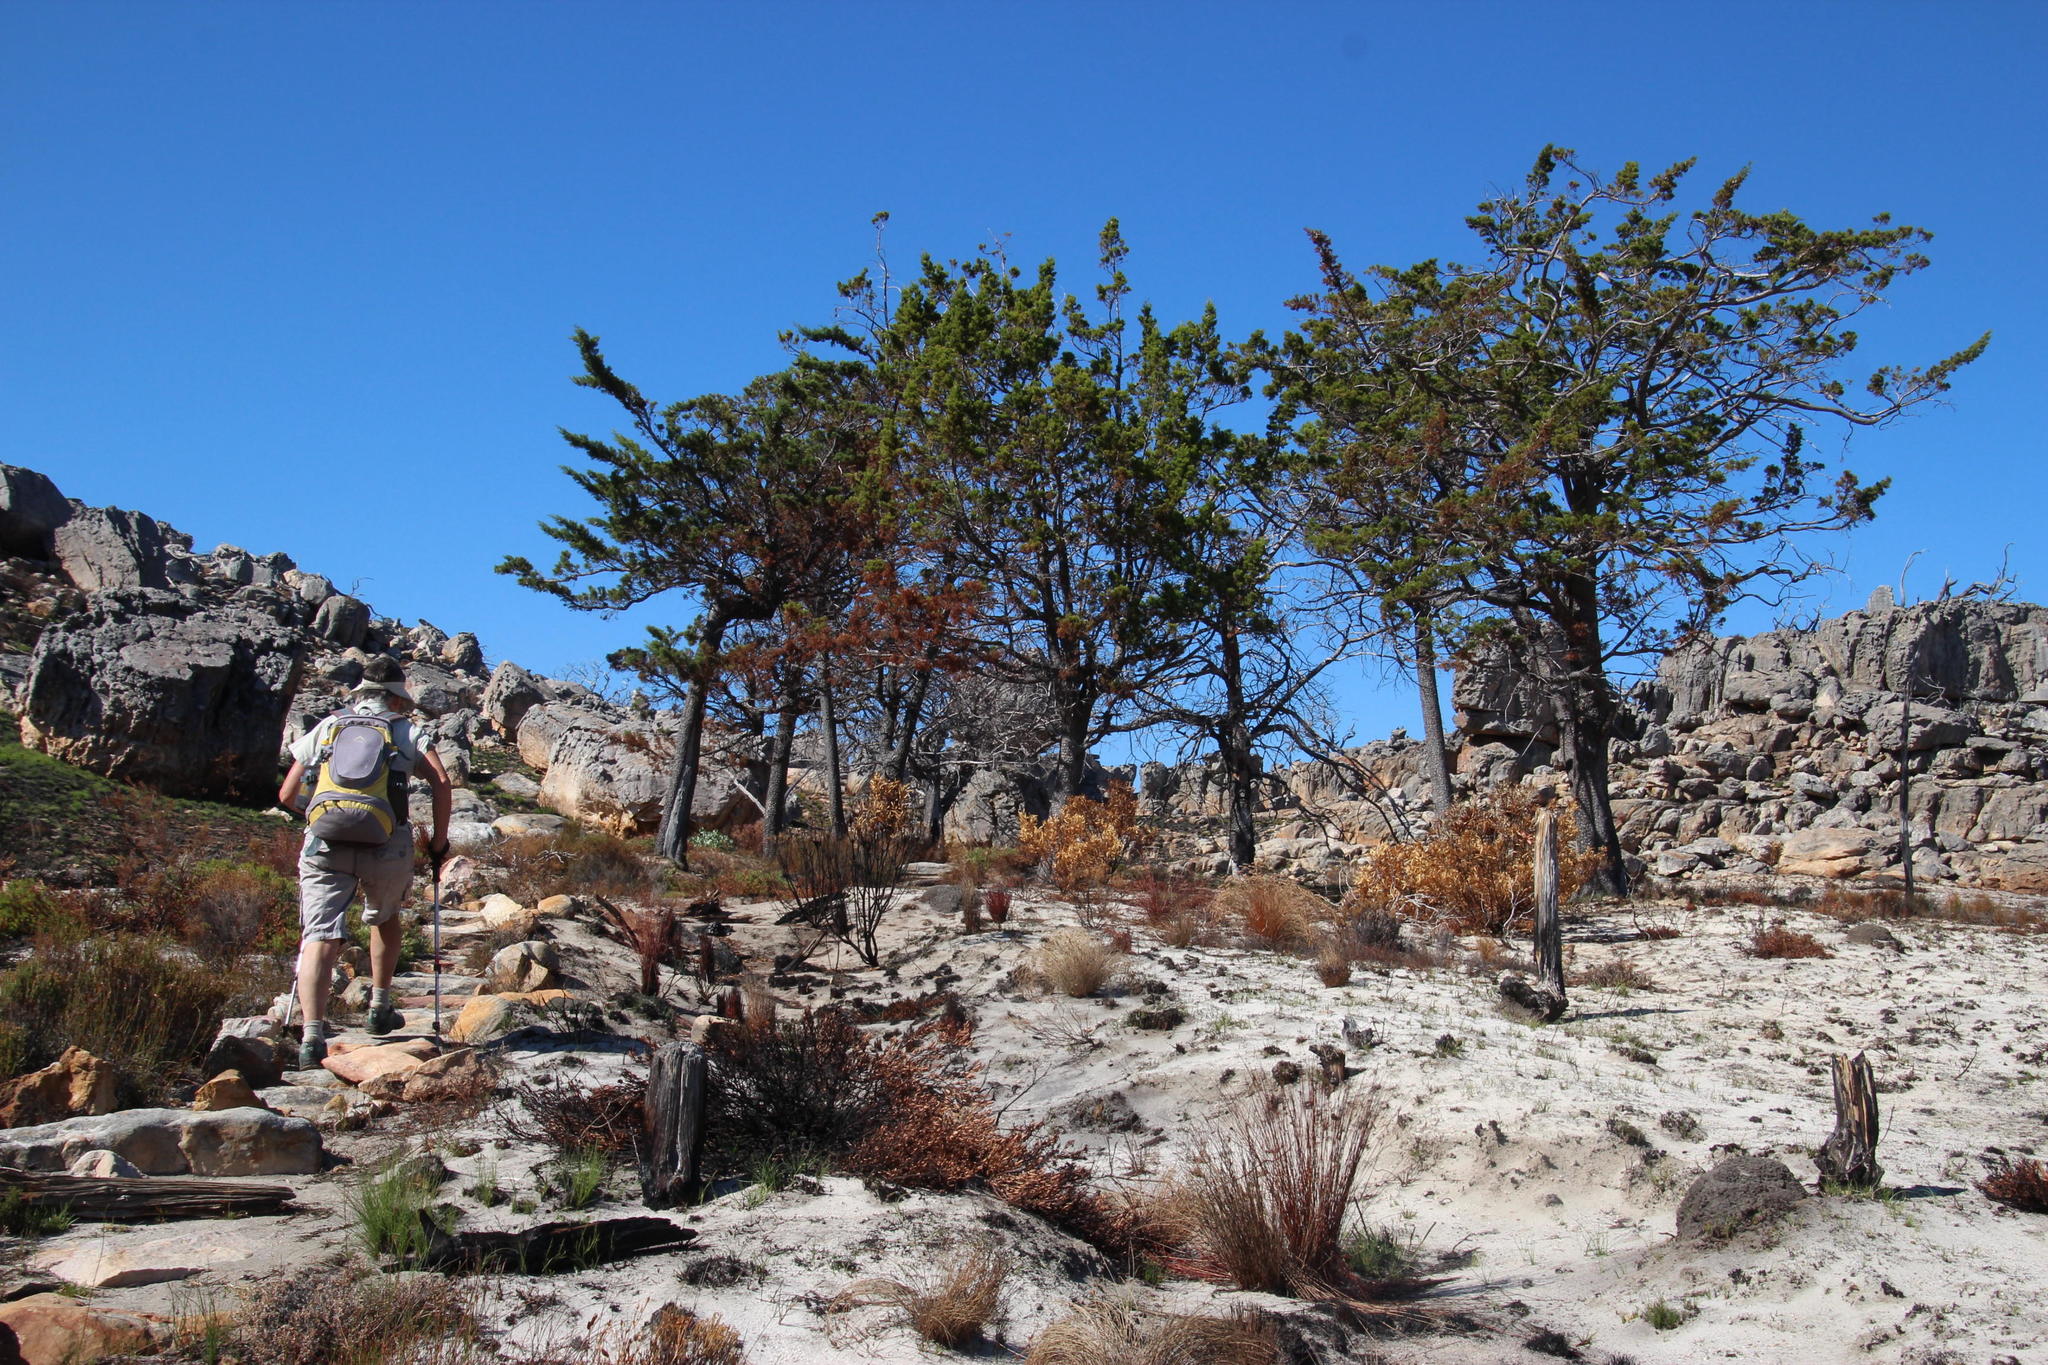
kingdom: Plantae
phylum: Tracheophyta
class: Pinopsida
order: Pinales
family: Cupressaceae
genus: Widdringtonia
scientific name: Widdringtonia nodiflora
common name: Cape cypress
